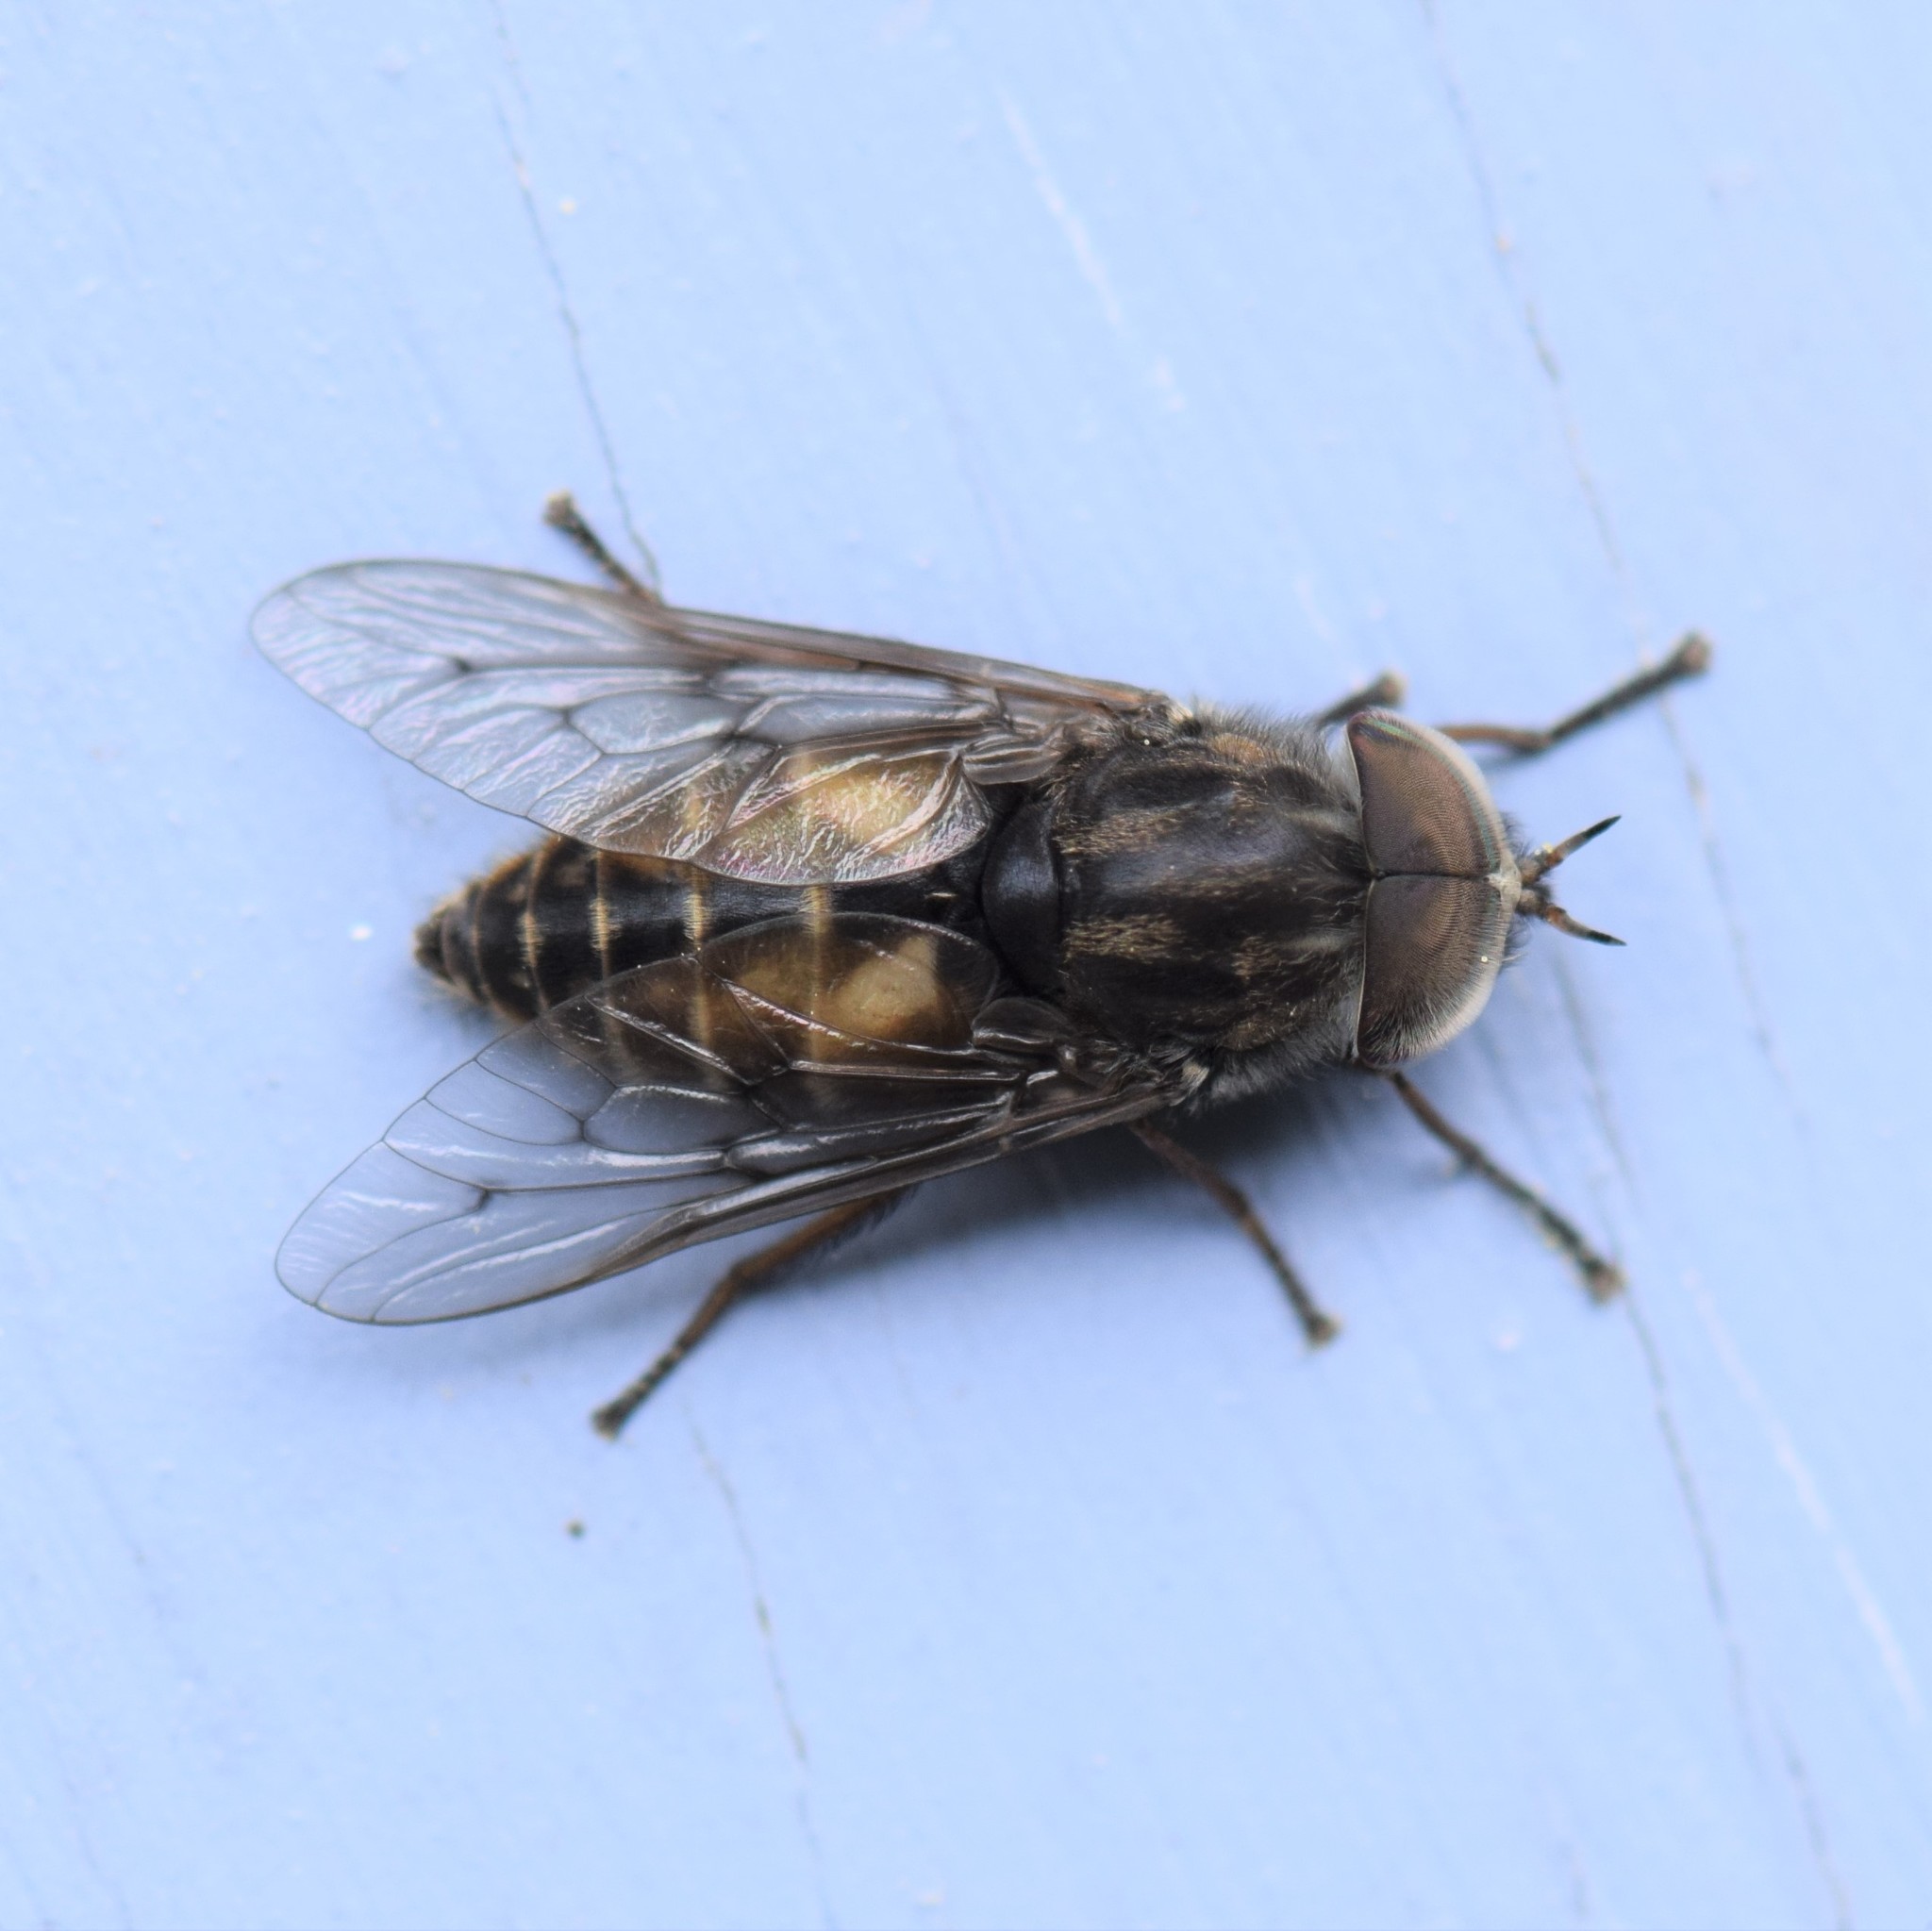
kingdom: Animalia
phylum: Arthropoda
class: Insecta
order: Diptera
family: Tabanidae
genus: Hybomitra
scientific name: Hybomitra lasiophthalma
